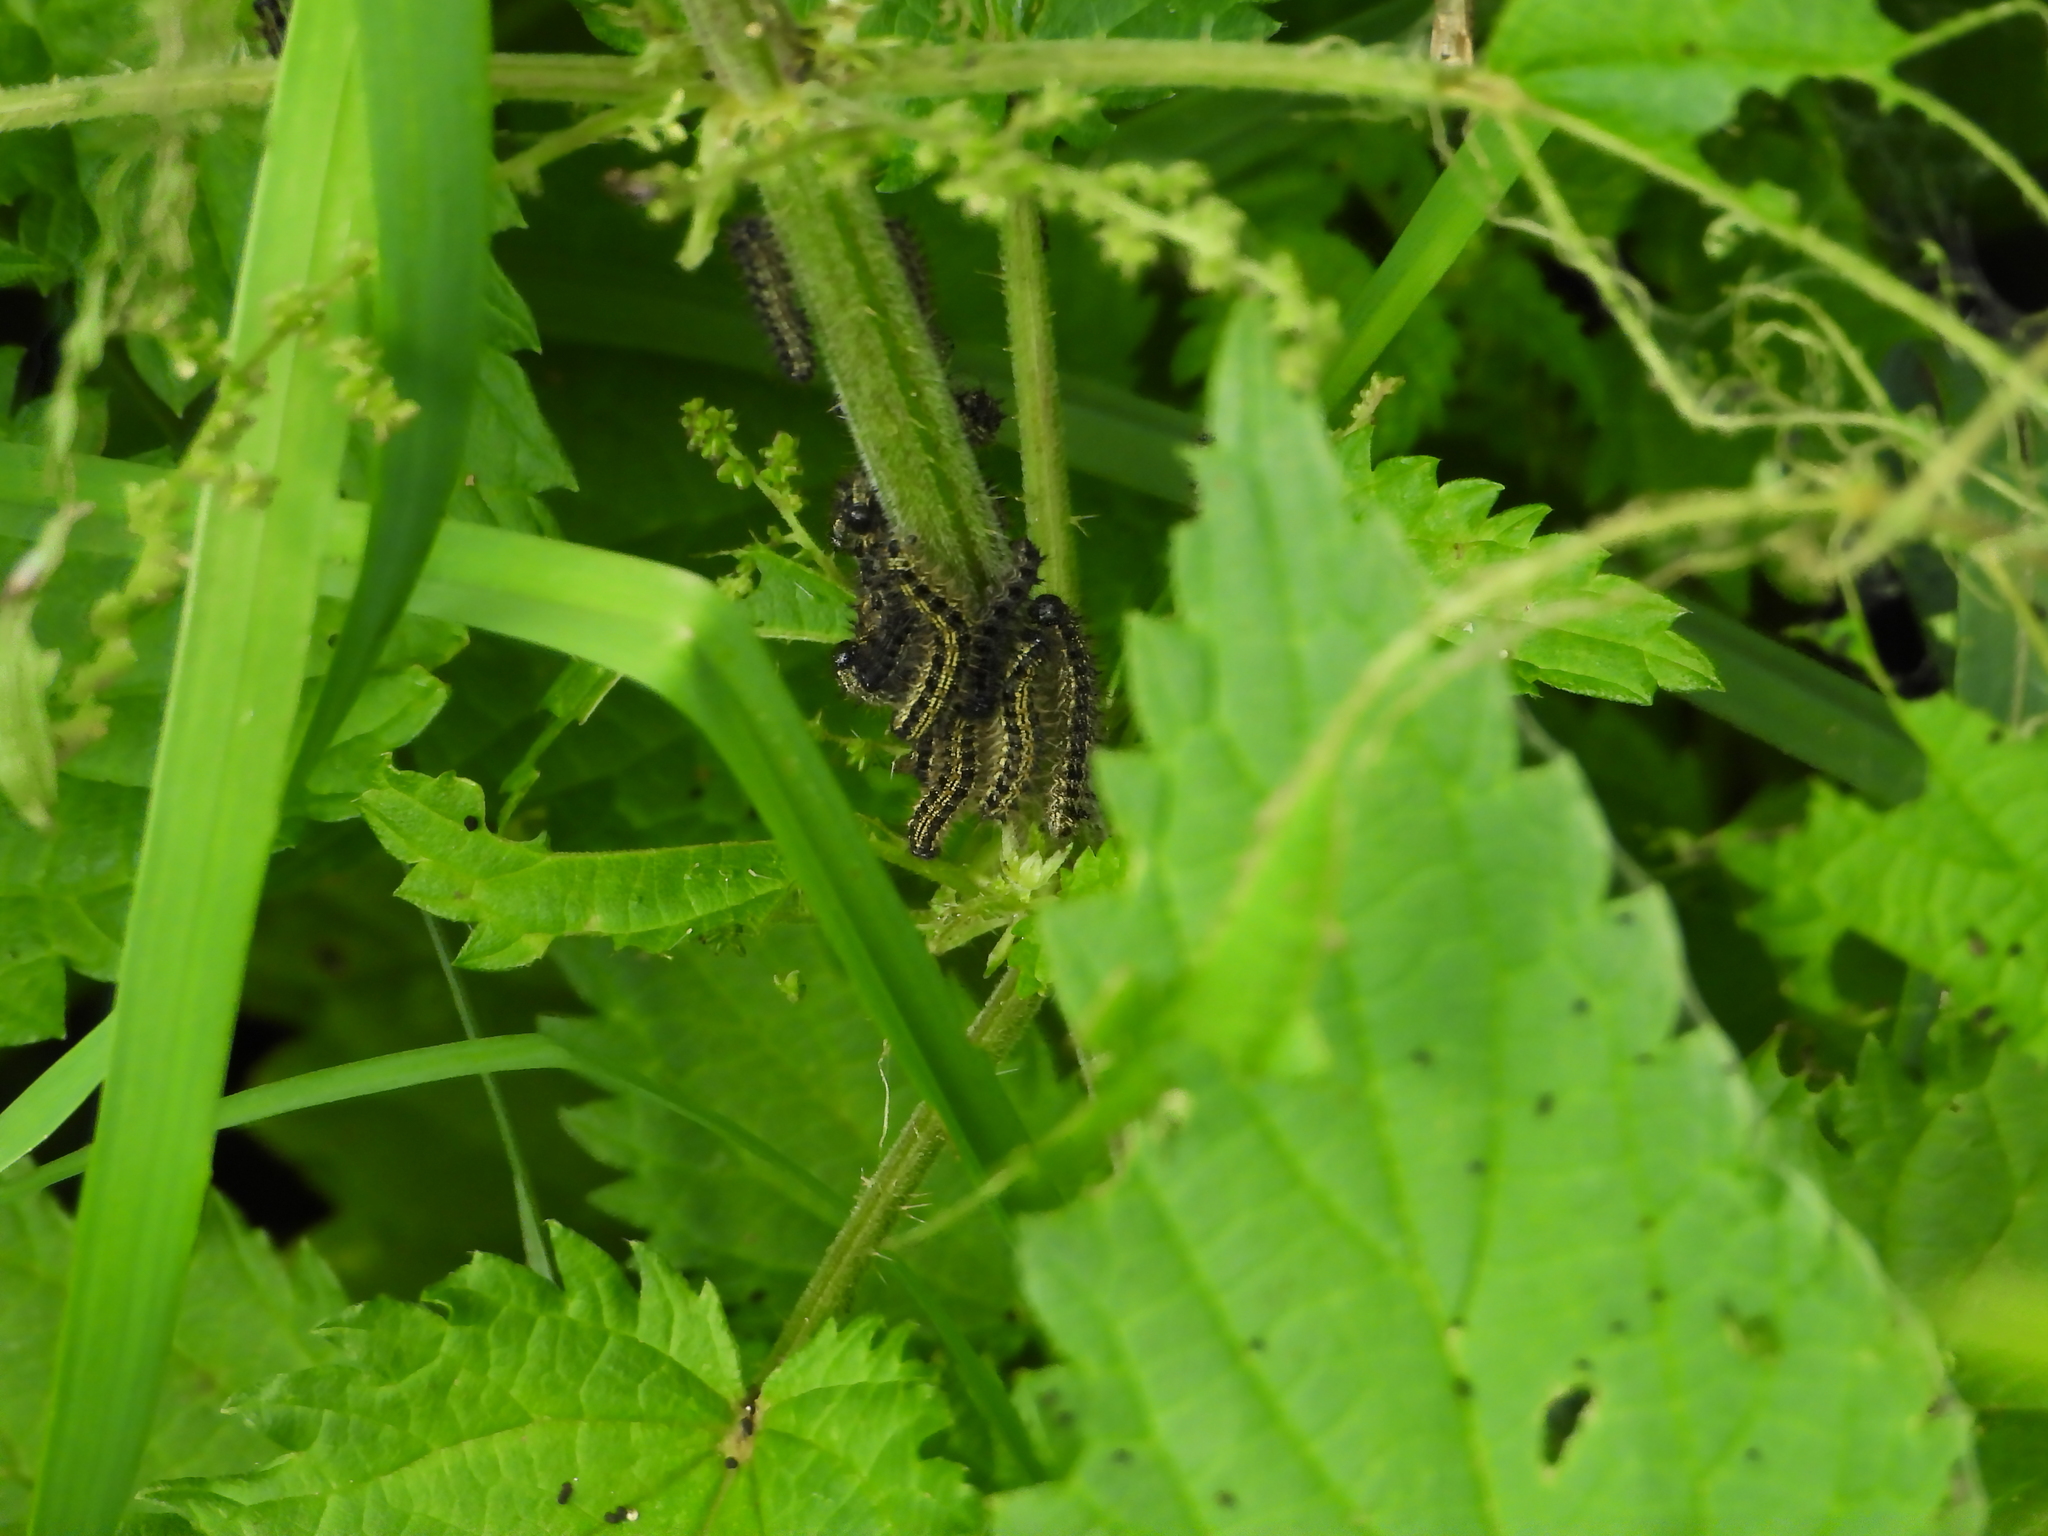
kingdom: Animalia
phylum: Arthropoda
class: Insecta
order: Lepidoptera
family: Nymphalidae
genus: Aglais
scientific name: Aglais urticae
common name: Small tortoiseshell
